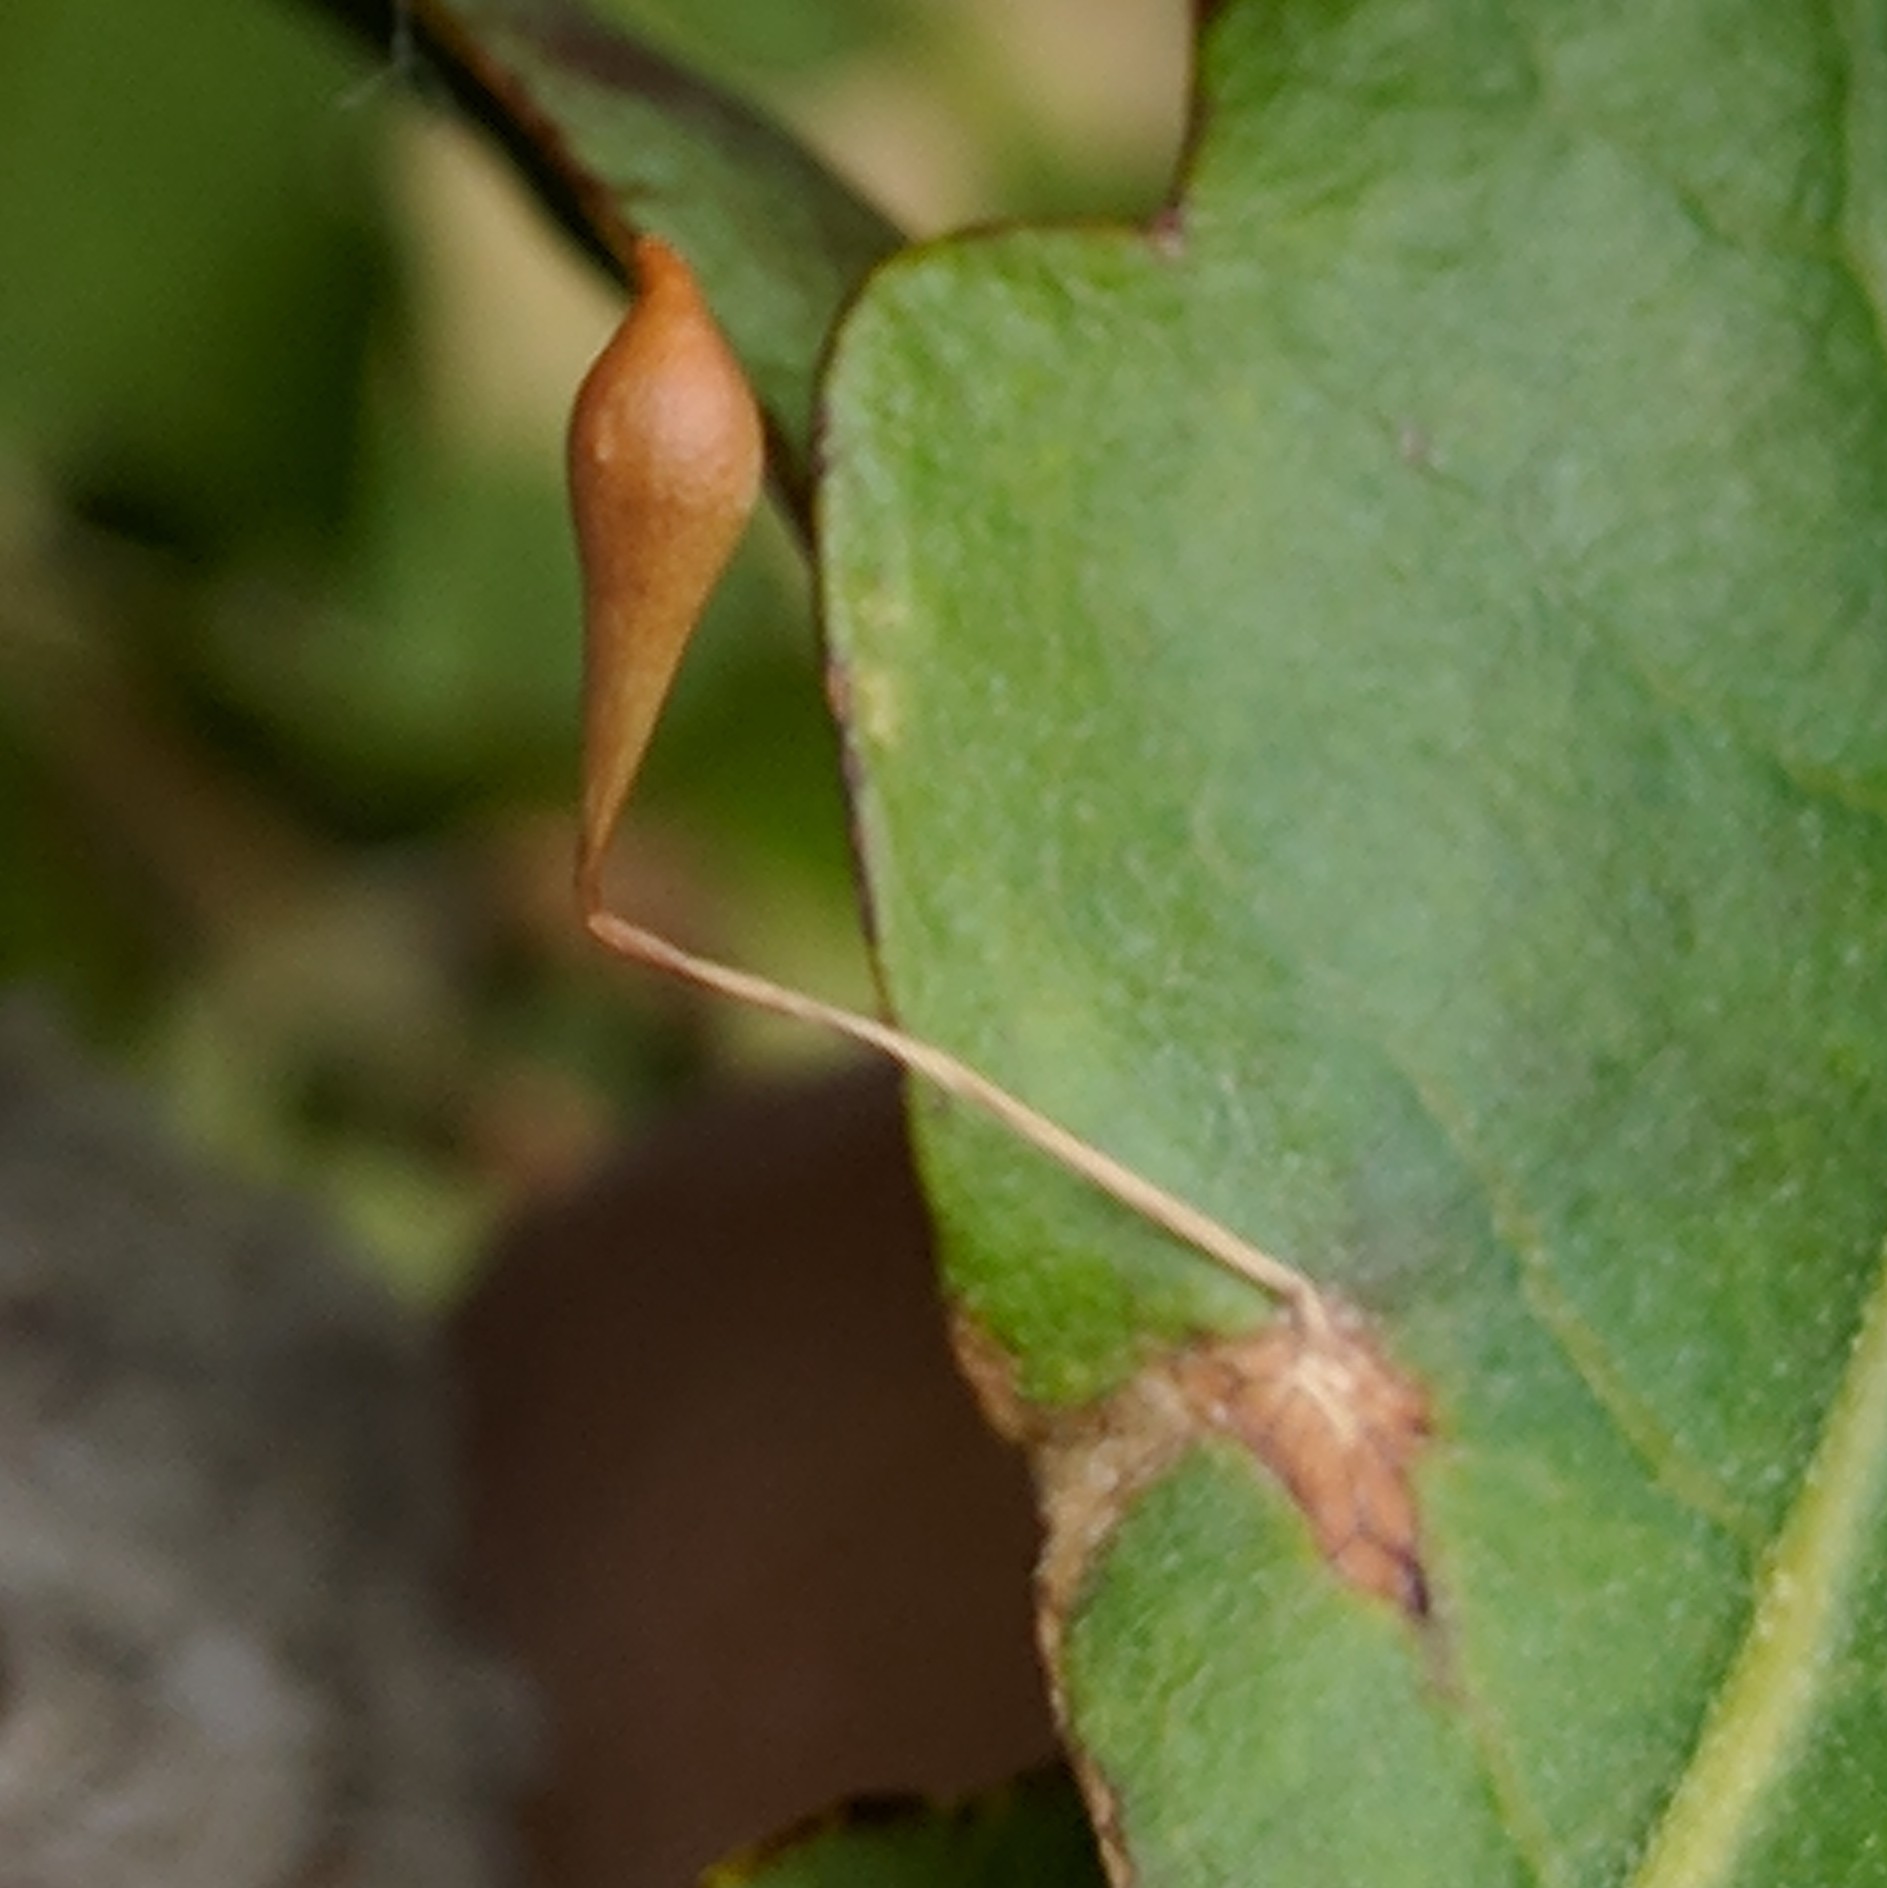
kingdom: Animalia
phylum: Arthropoda
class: Insecta
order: Hymenoptera
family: Cynipidae
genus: Andricus
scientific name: Andricus
